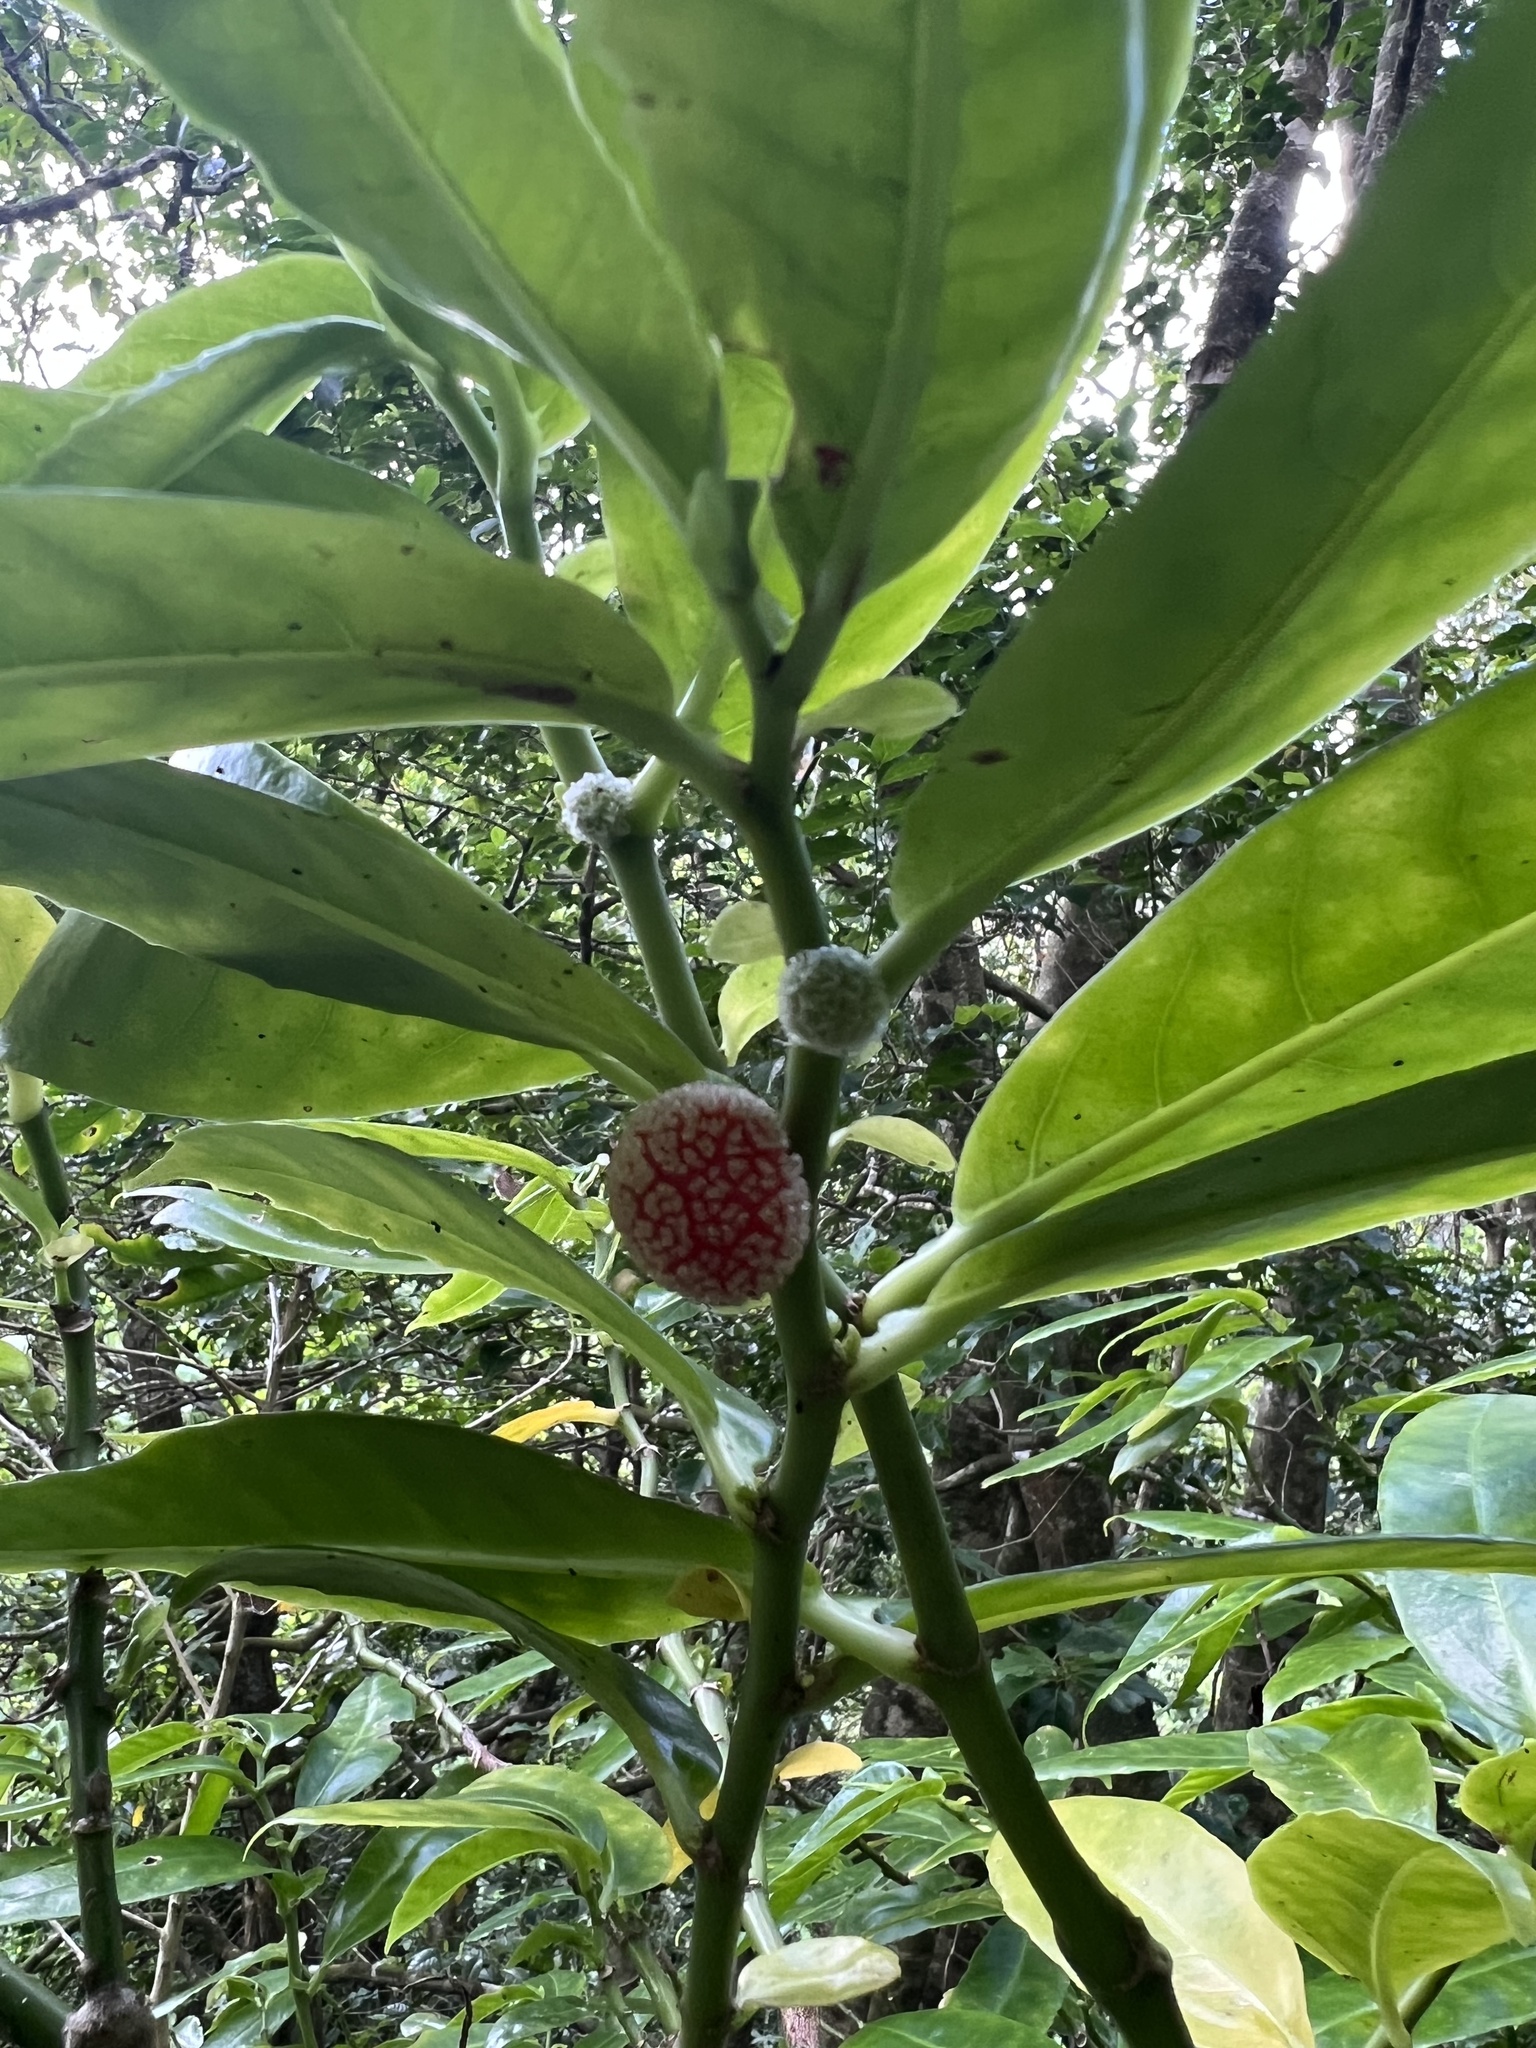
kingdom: Plantae
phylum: Tracheophyta
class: Magnoliopsida
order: Rosales
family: Urticaceae
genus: Procris
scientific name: Procris pedunculata
